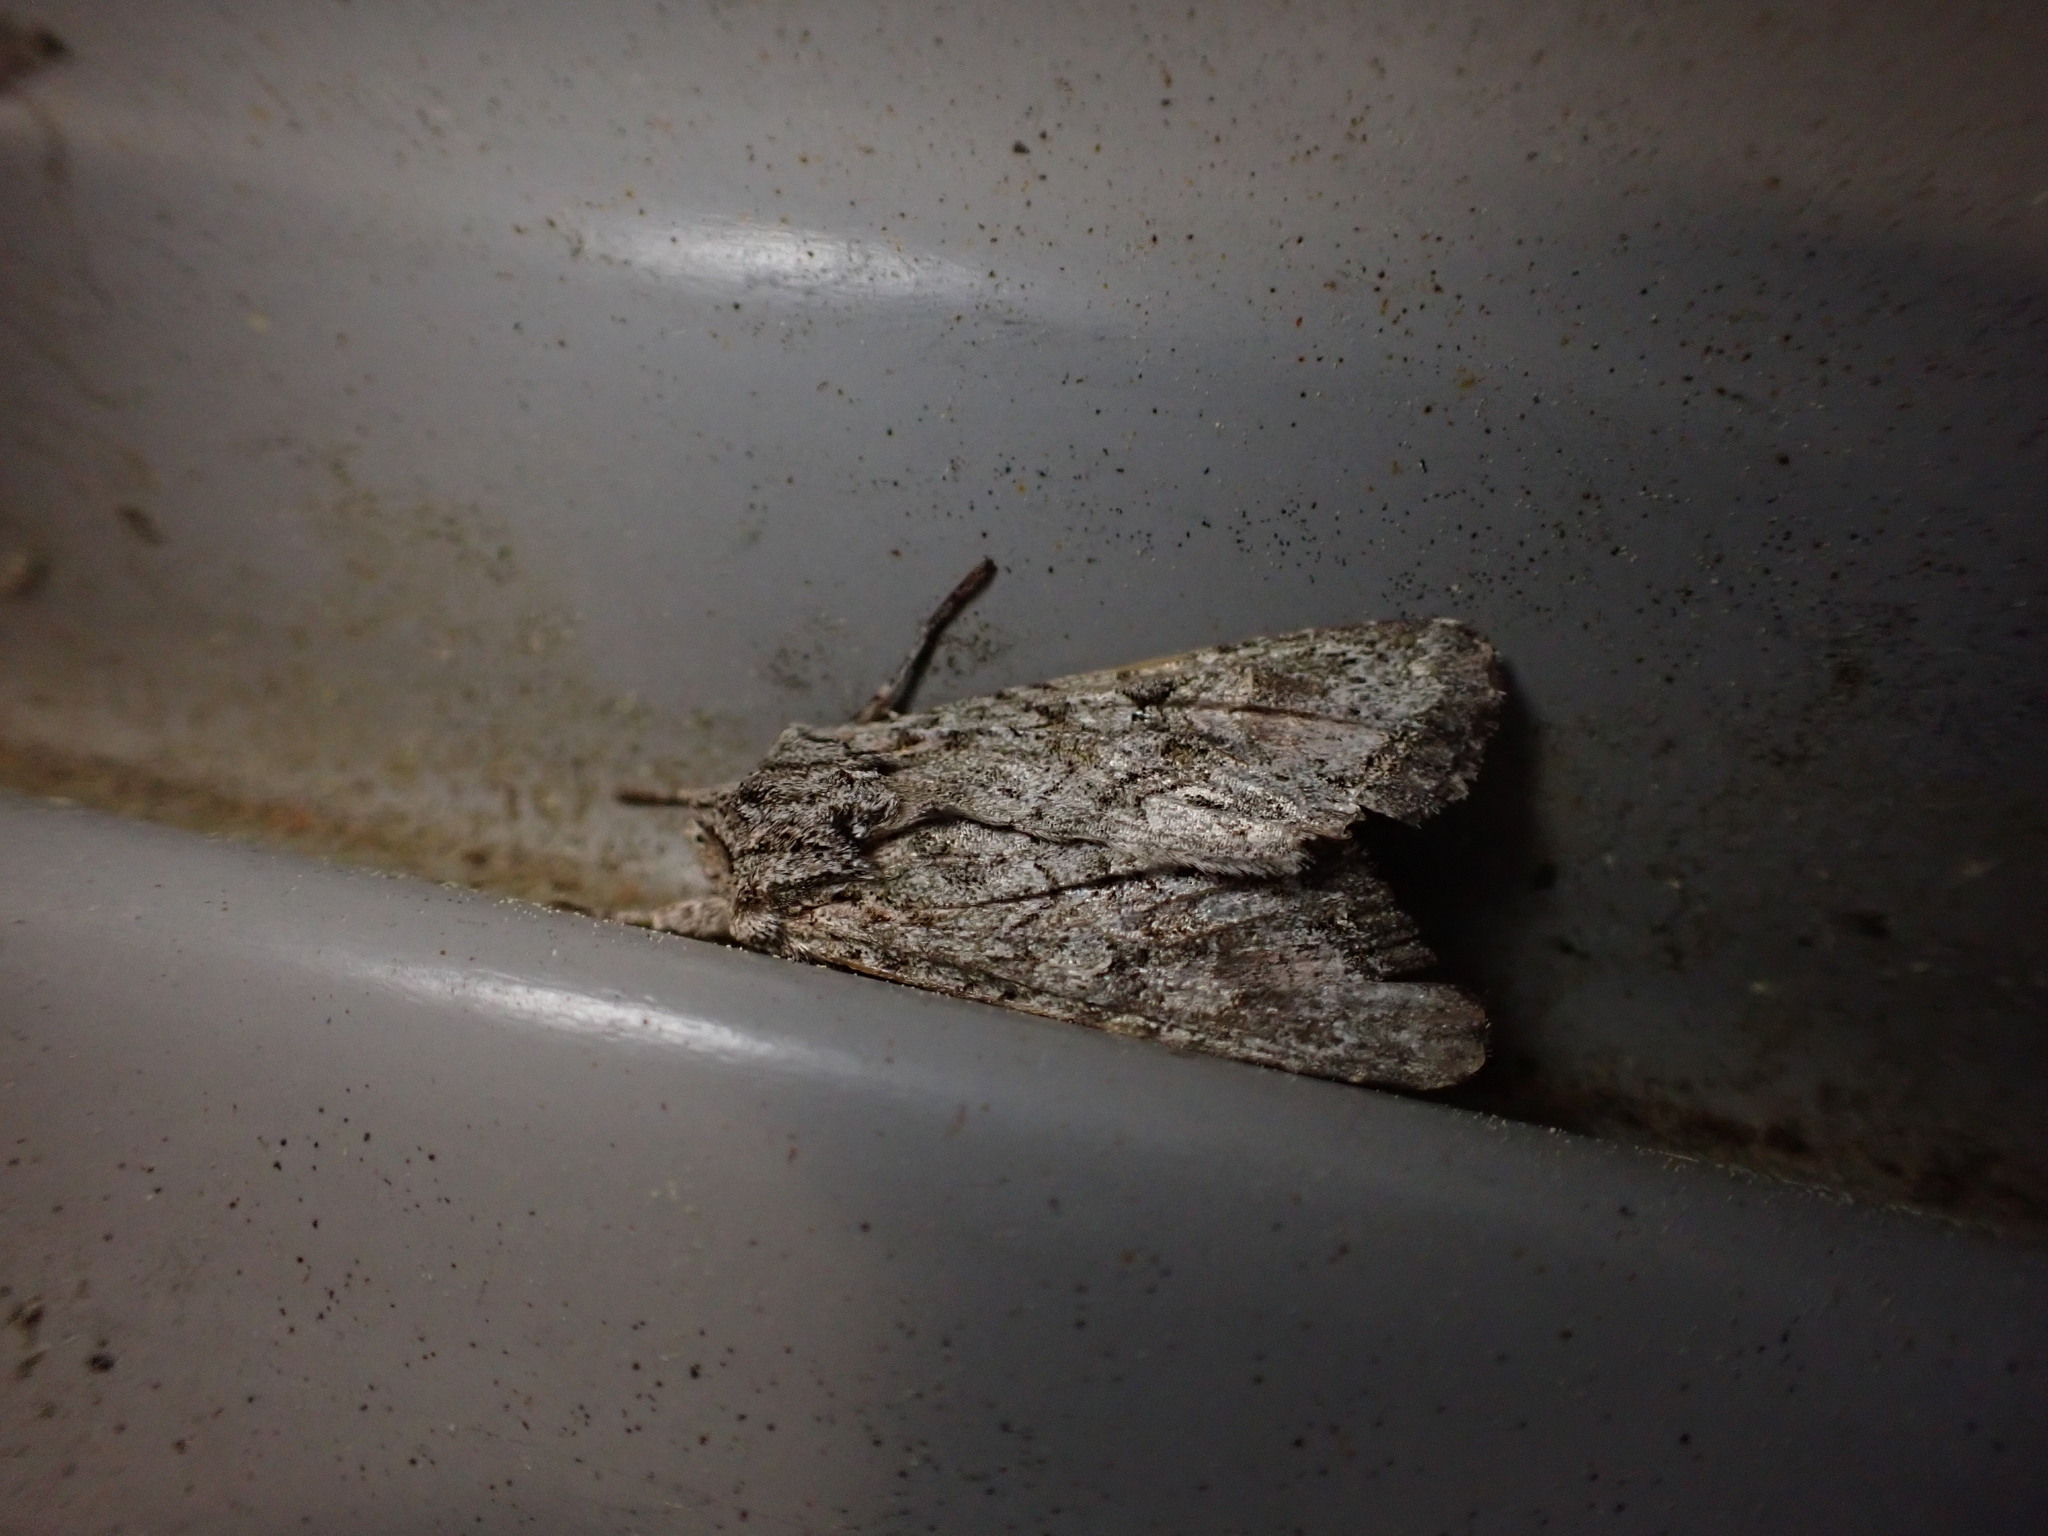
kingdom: Animalia
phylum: Arthropoda
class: Insecta
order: Lepidoptera
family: Noctuidae
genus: Ichneutica
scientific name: Ichneutica mutans
